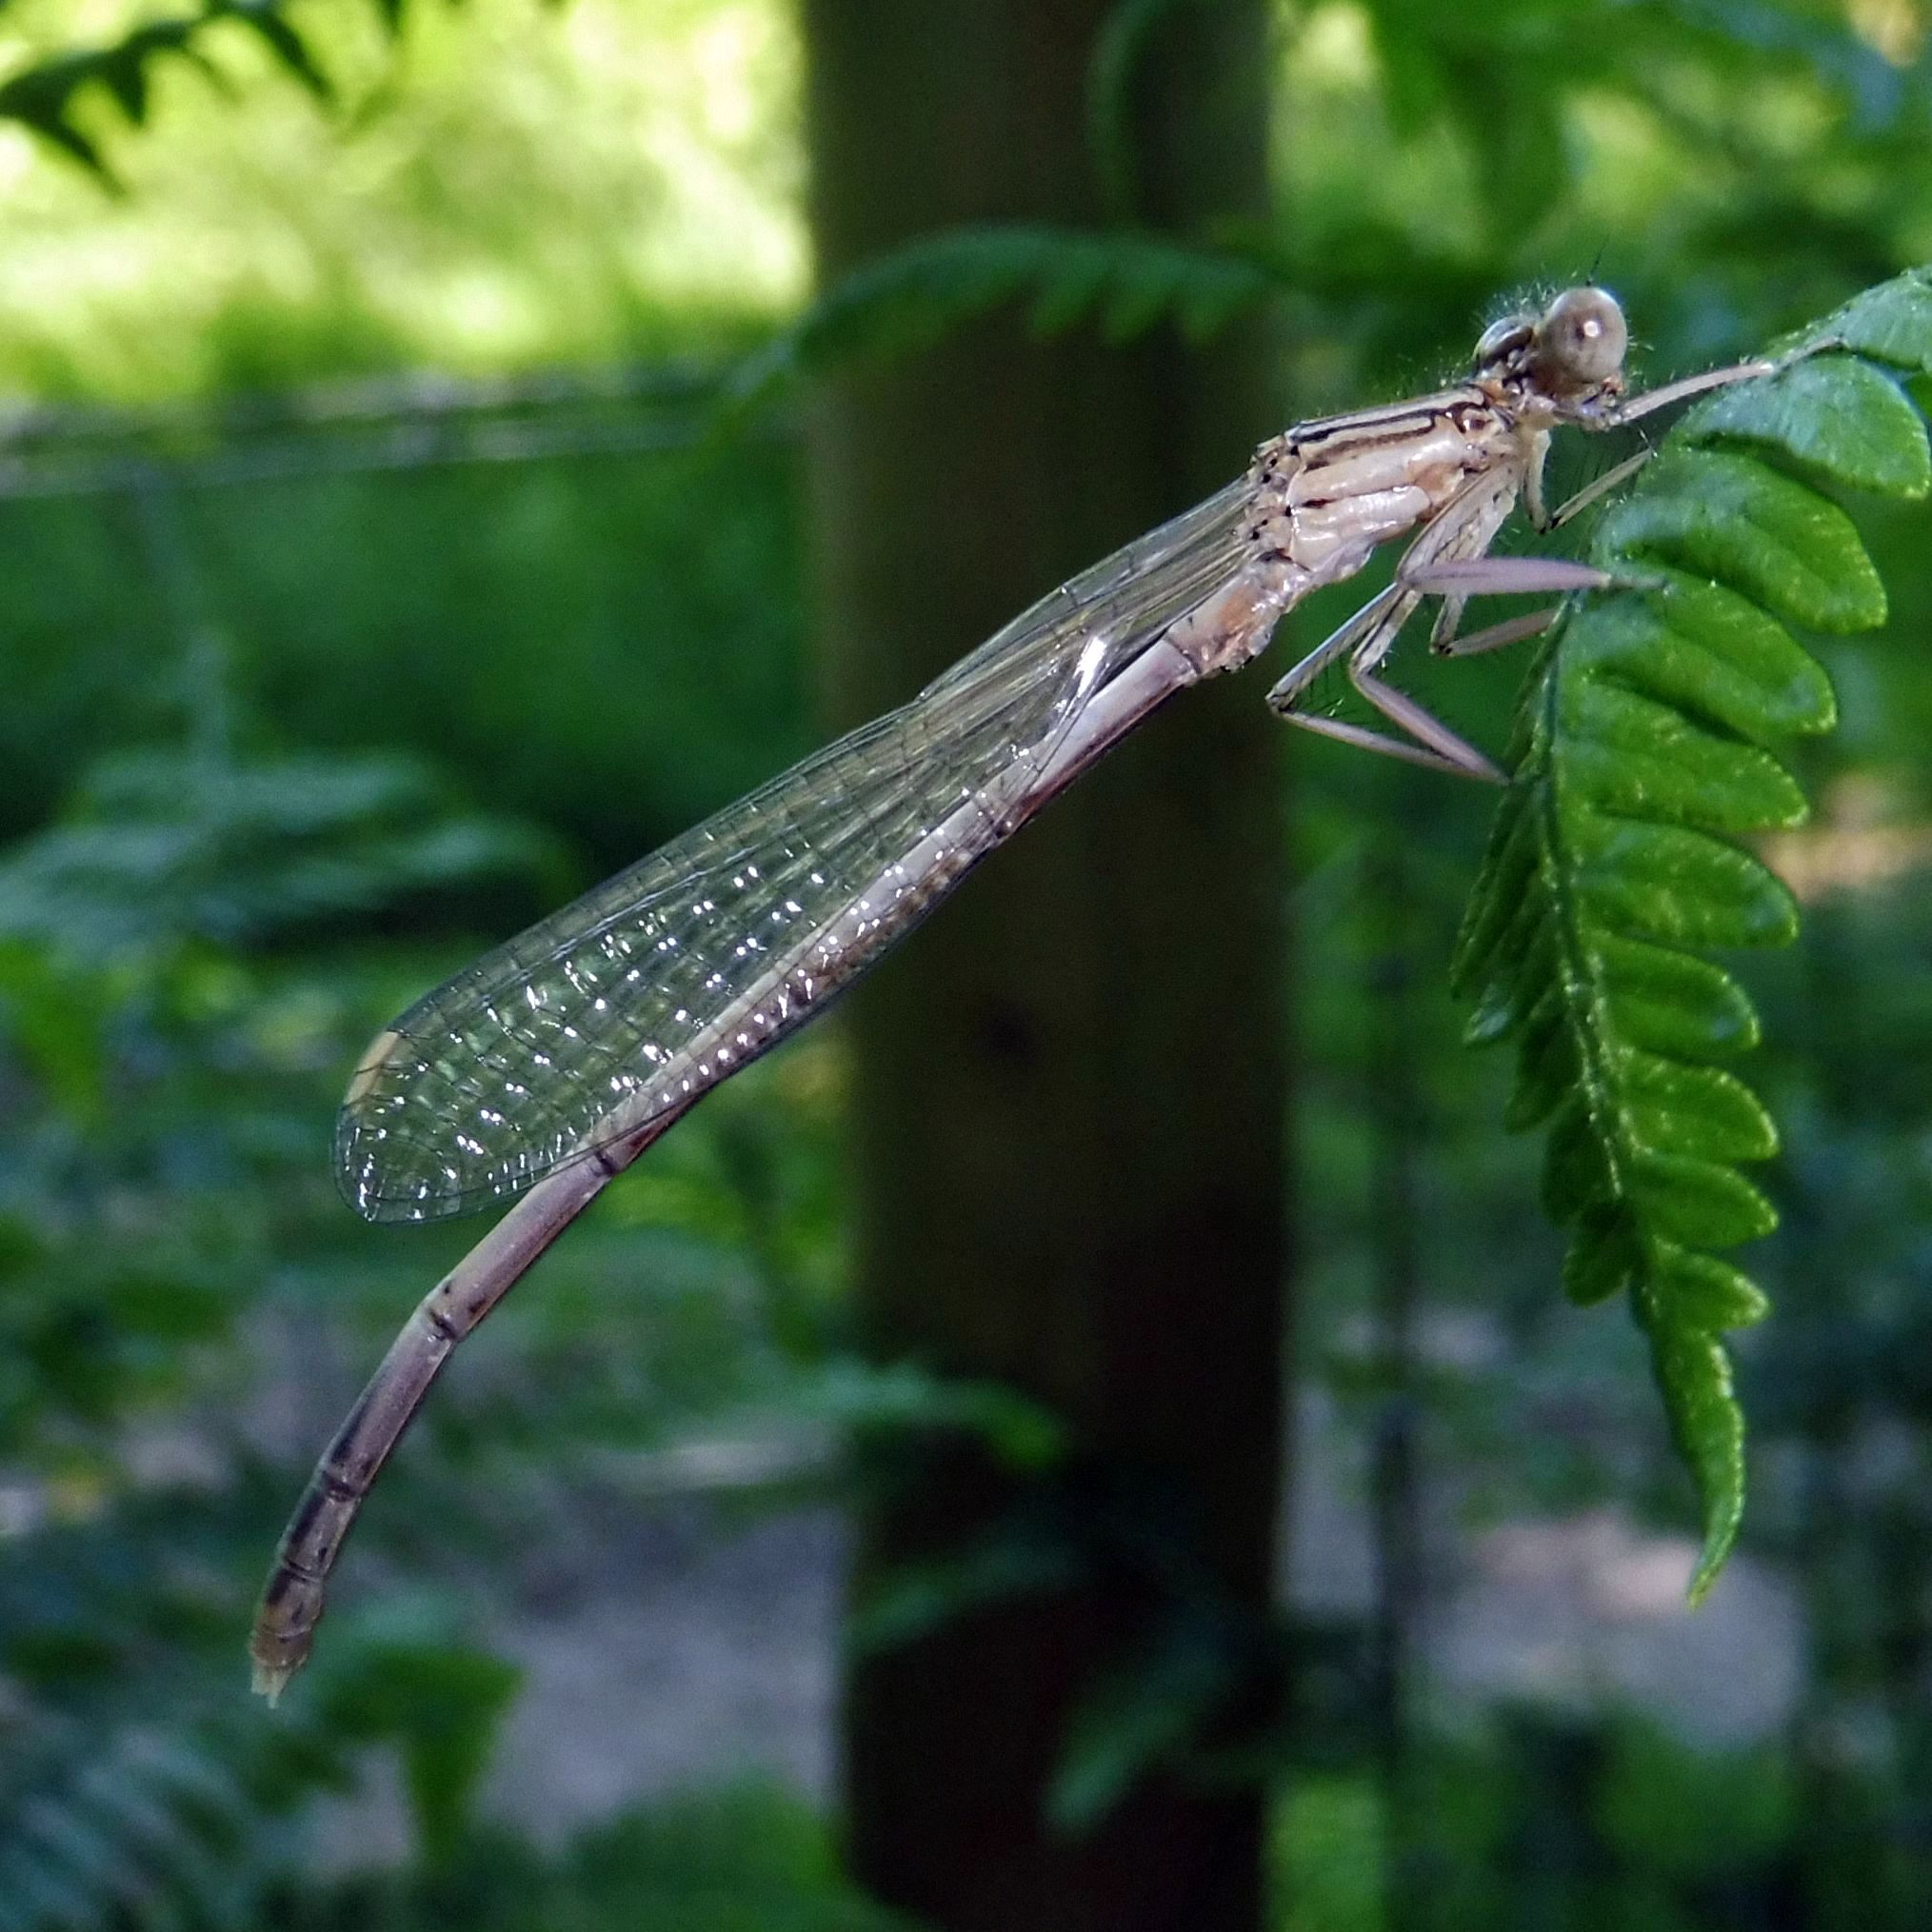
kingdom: Animalia
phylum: Arthropoda
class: Insecta
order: Odonata
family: Platycnemididae
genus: Platycnemis
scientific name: Platycnemis pennipes
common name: White-legged damselfly
